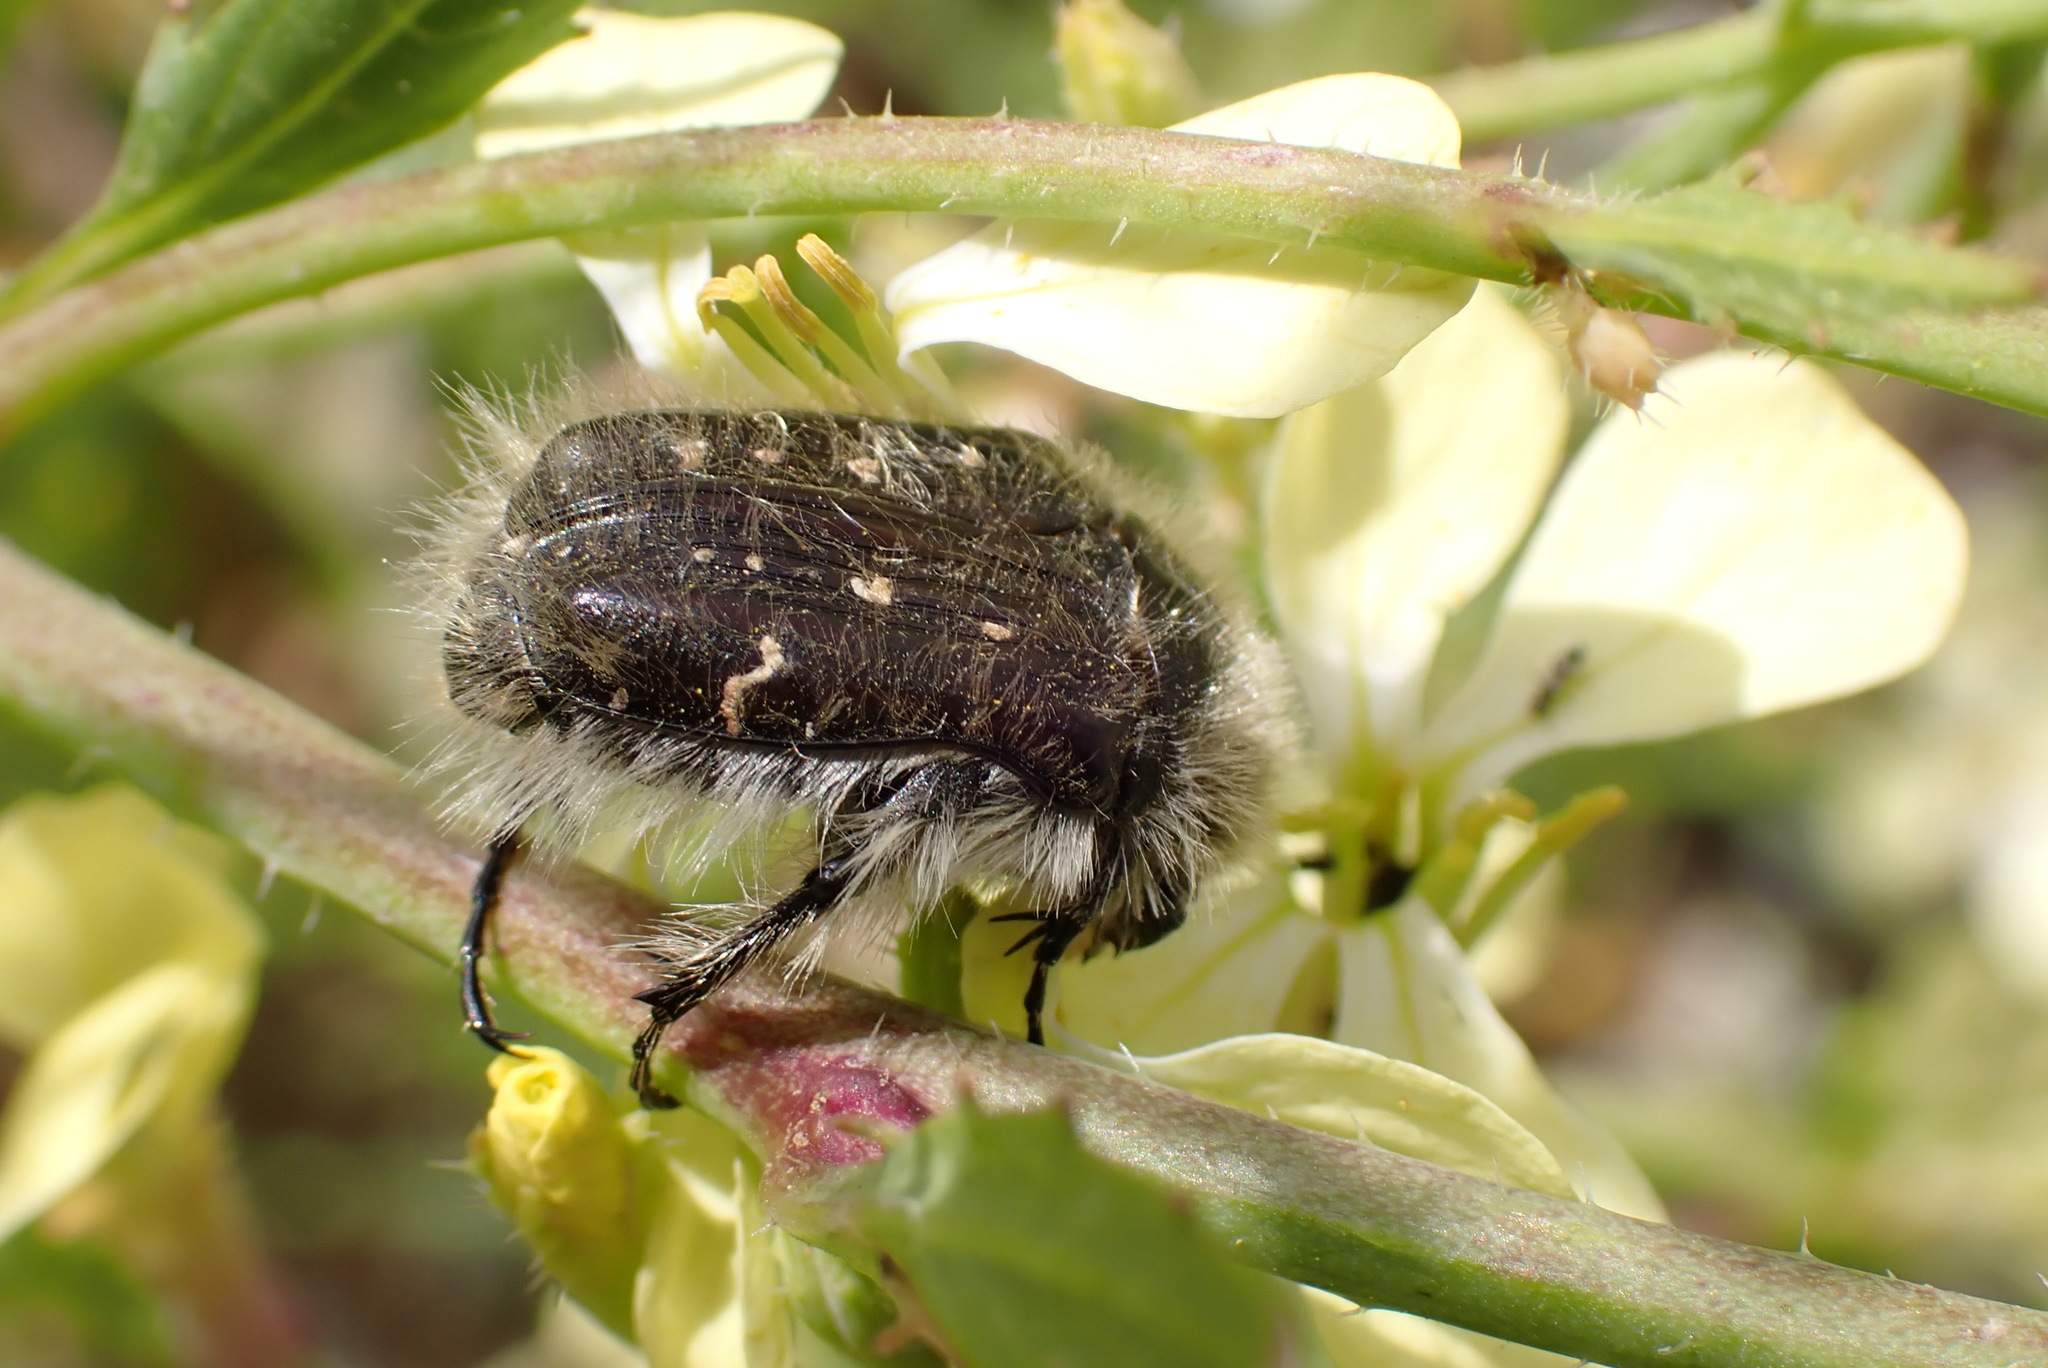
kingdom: Animalia
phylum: Arthropoda
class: Insecta
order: Coleoptera
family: Scarabaeidae
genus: Tropinota
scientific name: Tropinota hirta
